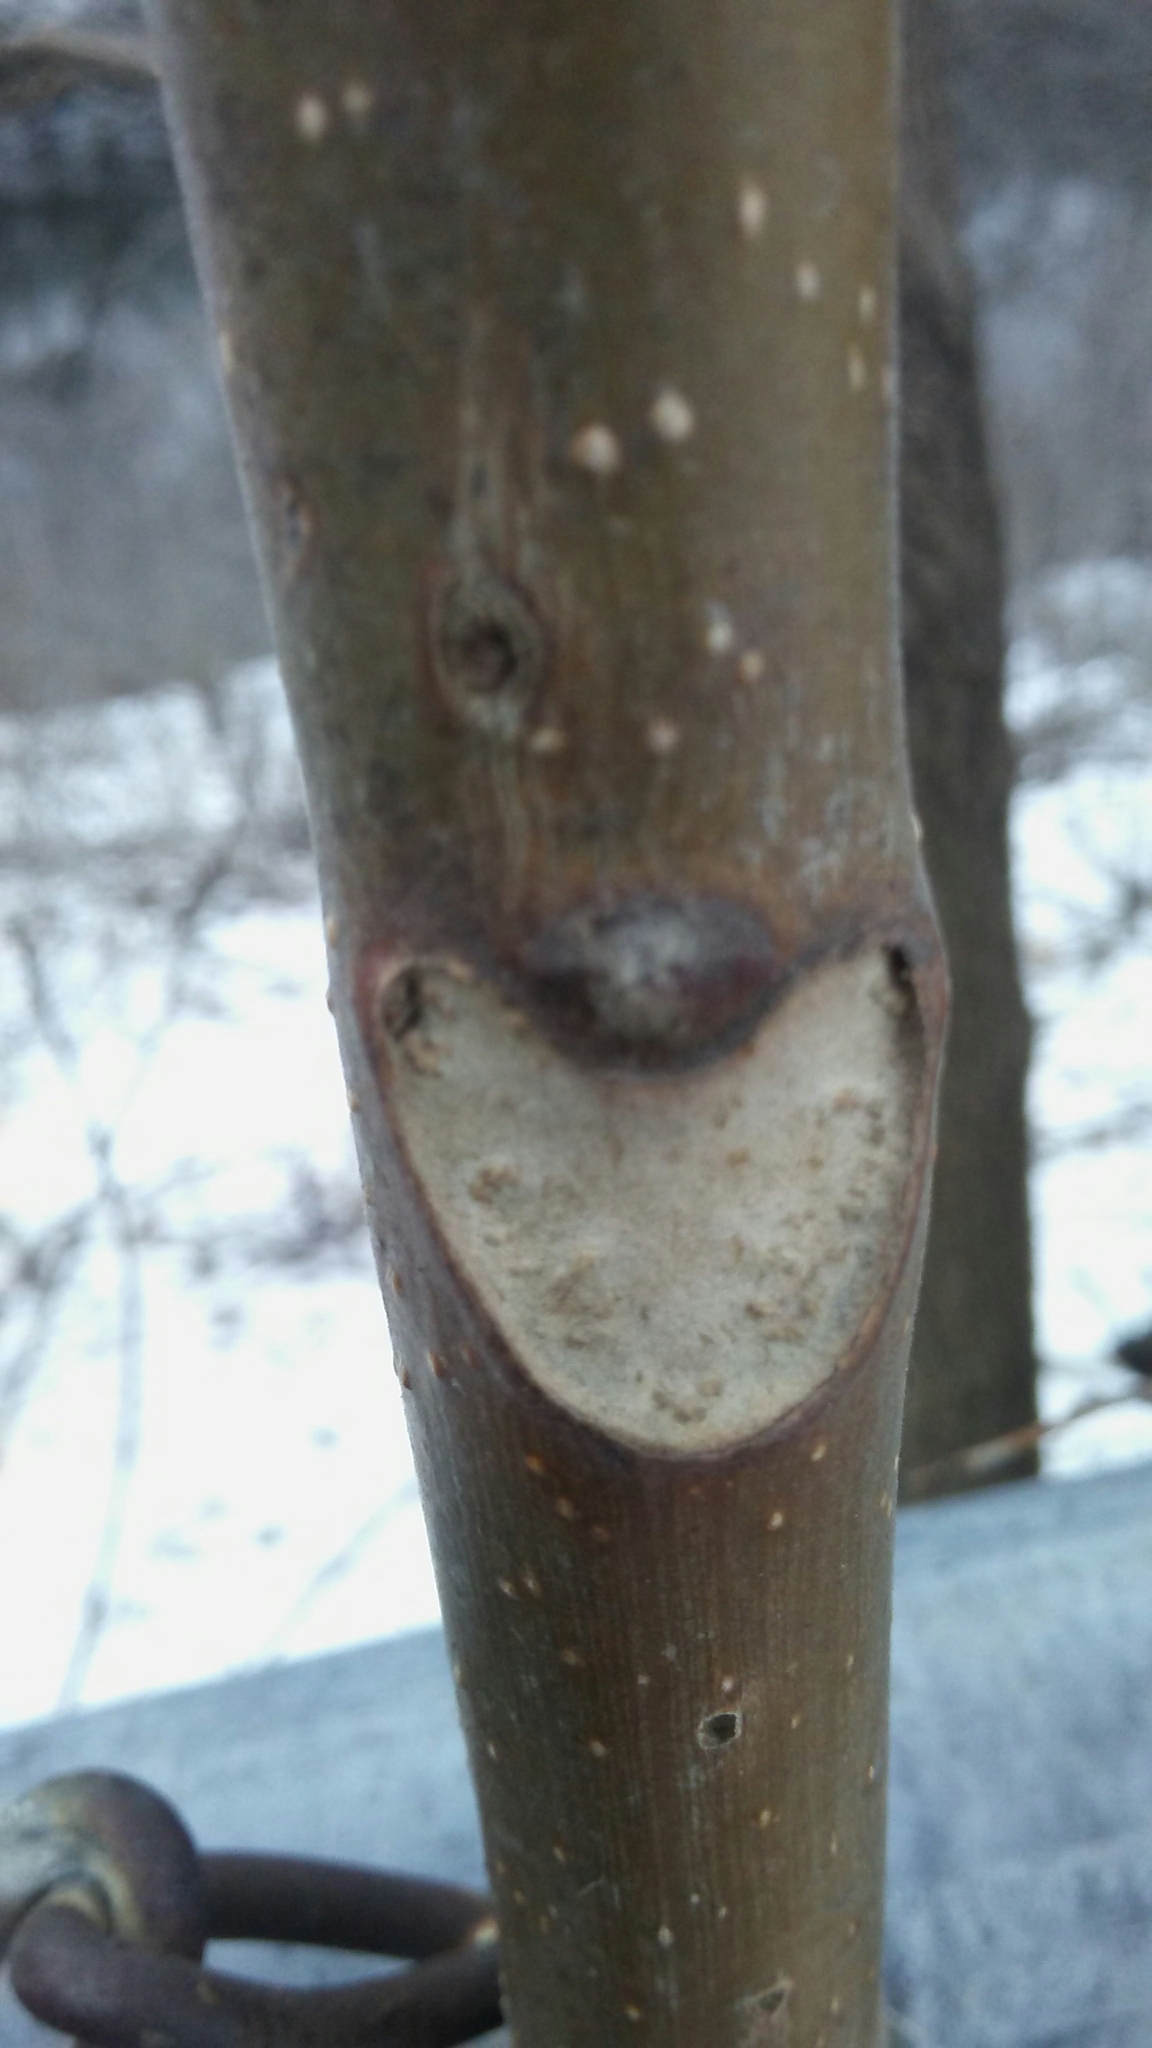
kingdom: Plantae
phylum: Tracheophyta
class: Magnoliopsida
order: Sapindales
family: Simaroubaceae
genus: Ailanthus
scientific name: Ailanthus altissima
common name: Tree-of-heaven
